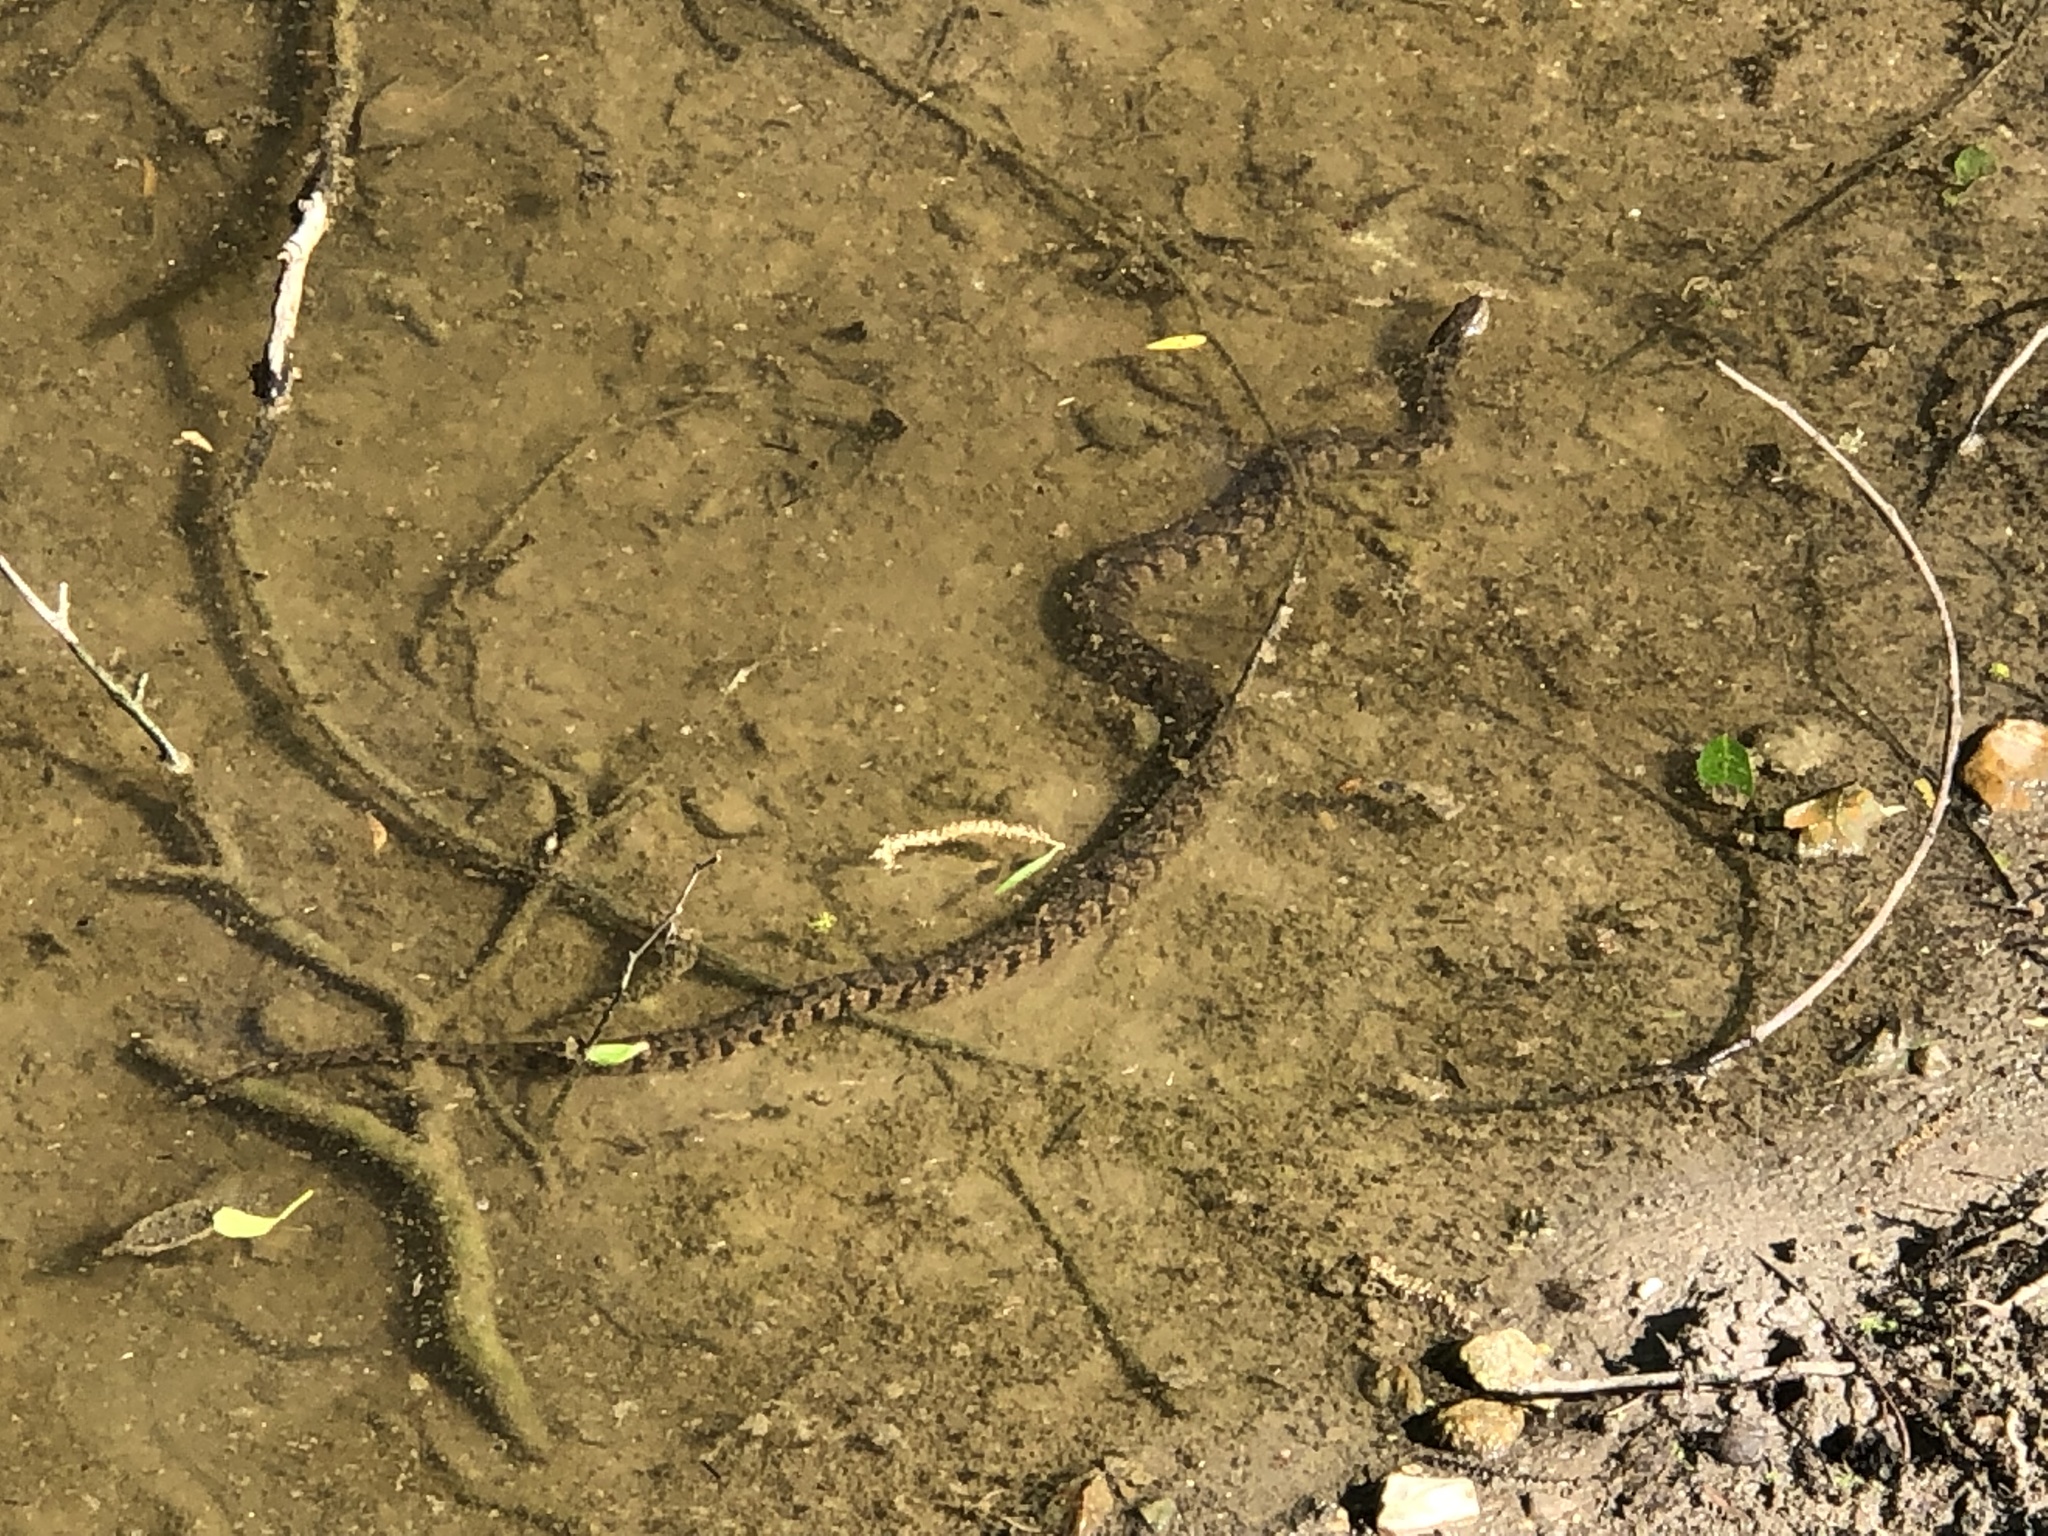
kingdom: Animalia
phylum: Chordata
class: Squamata
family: Colubridae
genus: Nerodia
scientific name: Nerodia rhombifer
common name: Diamondback water snake
